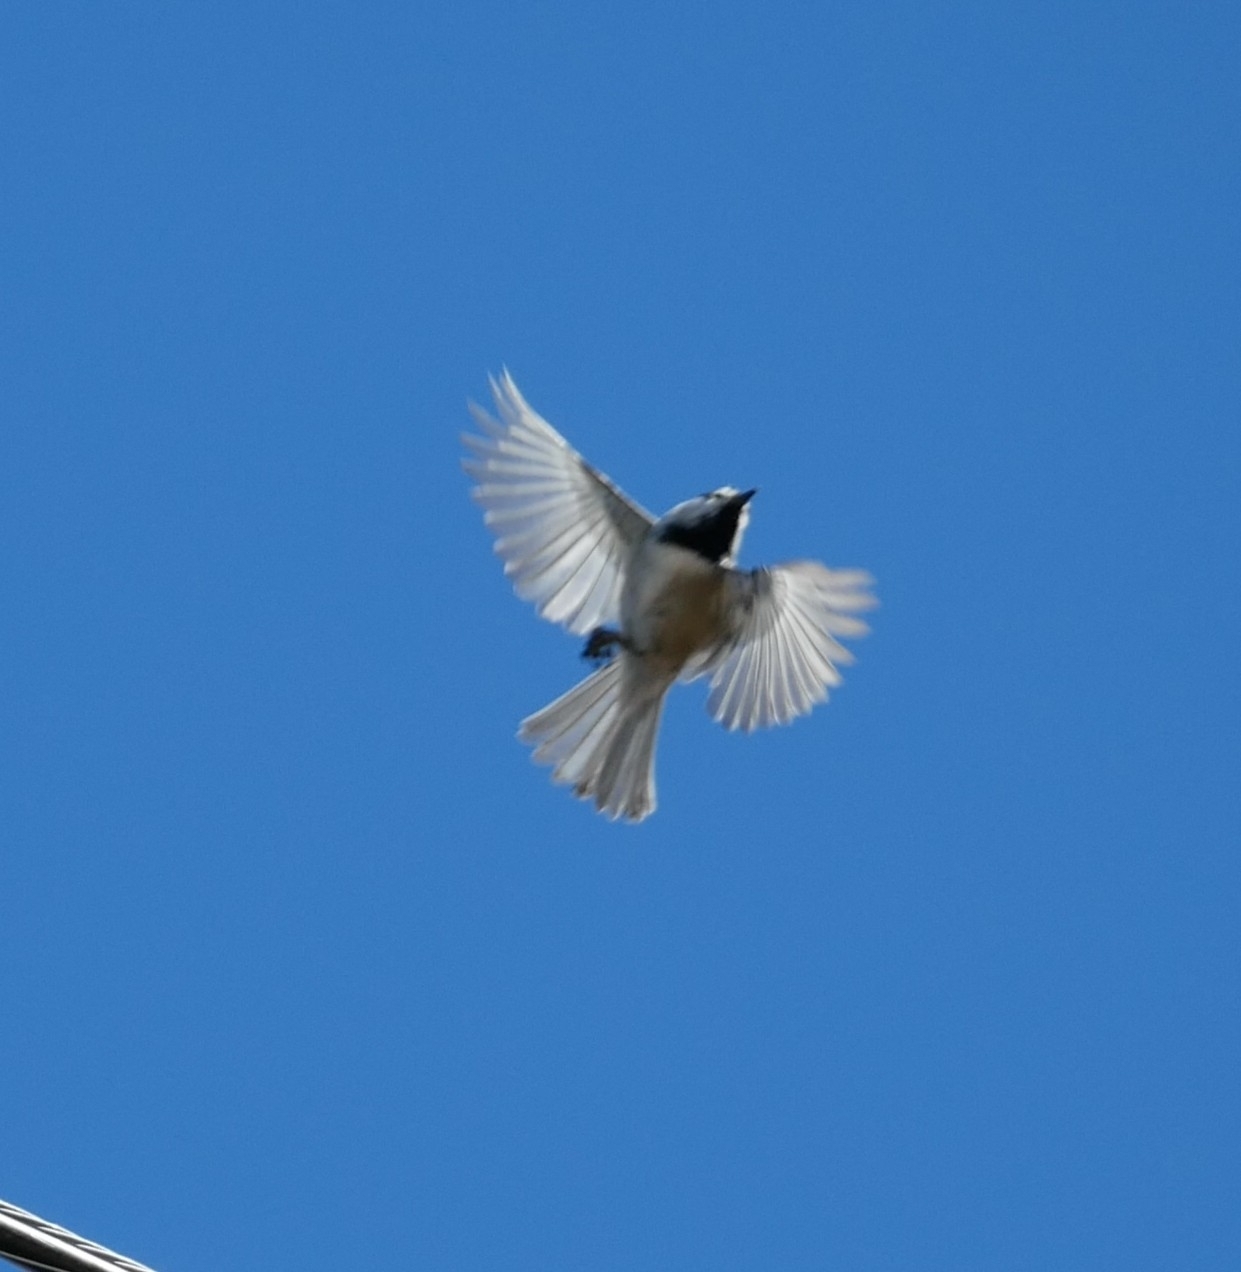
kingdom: Animalia
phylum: Chordata
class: Aves
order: Passeriformes
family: Paridae
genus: Poecile
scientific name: Poecile gambeli
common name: Mountain chickadee
